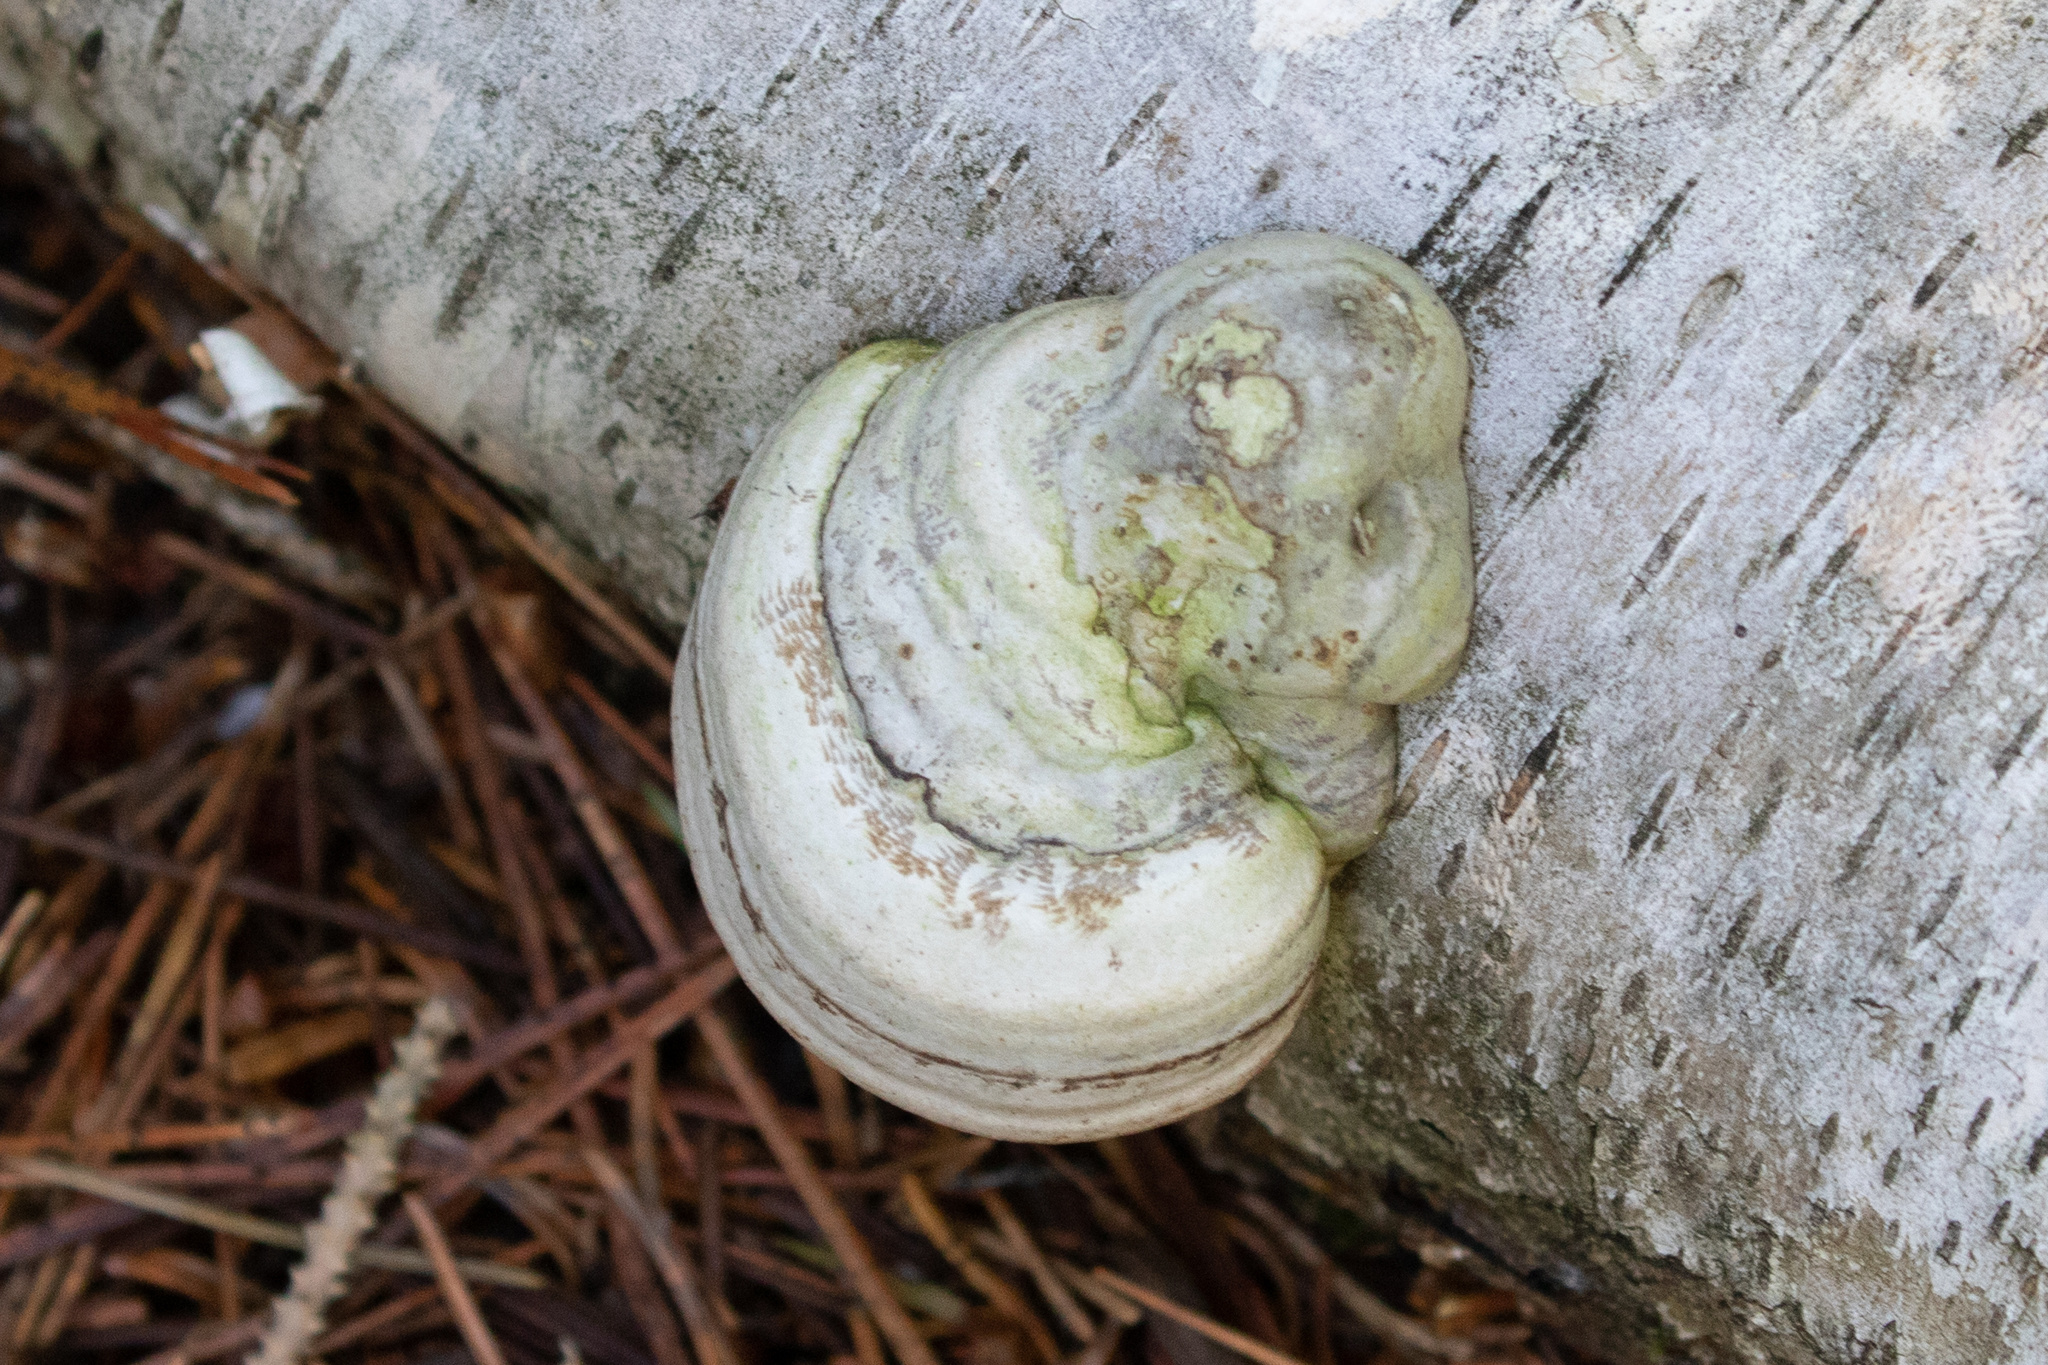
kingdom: Fungi
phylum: Basidiomycota
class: Agaricomycetes
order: Polyporales
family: Polyporaceae
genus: Fomes
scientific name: Fomes fomentarius
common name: Hoof fungus
